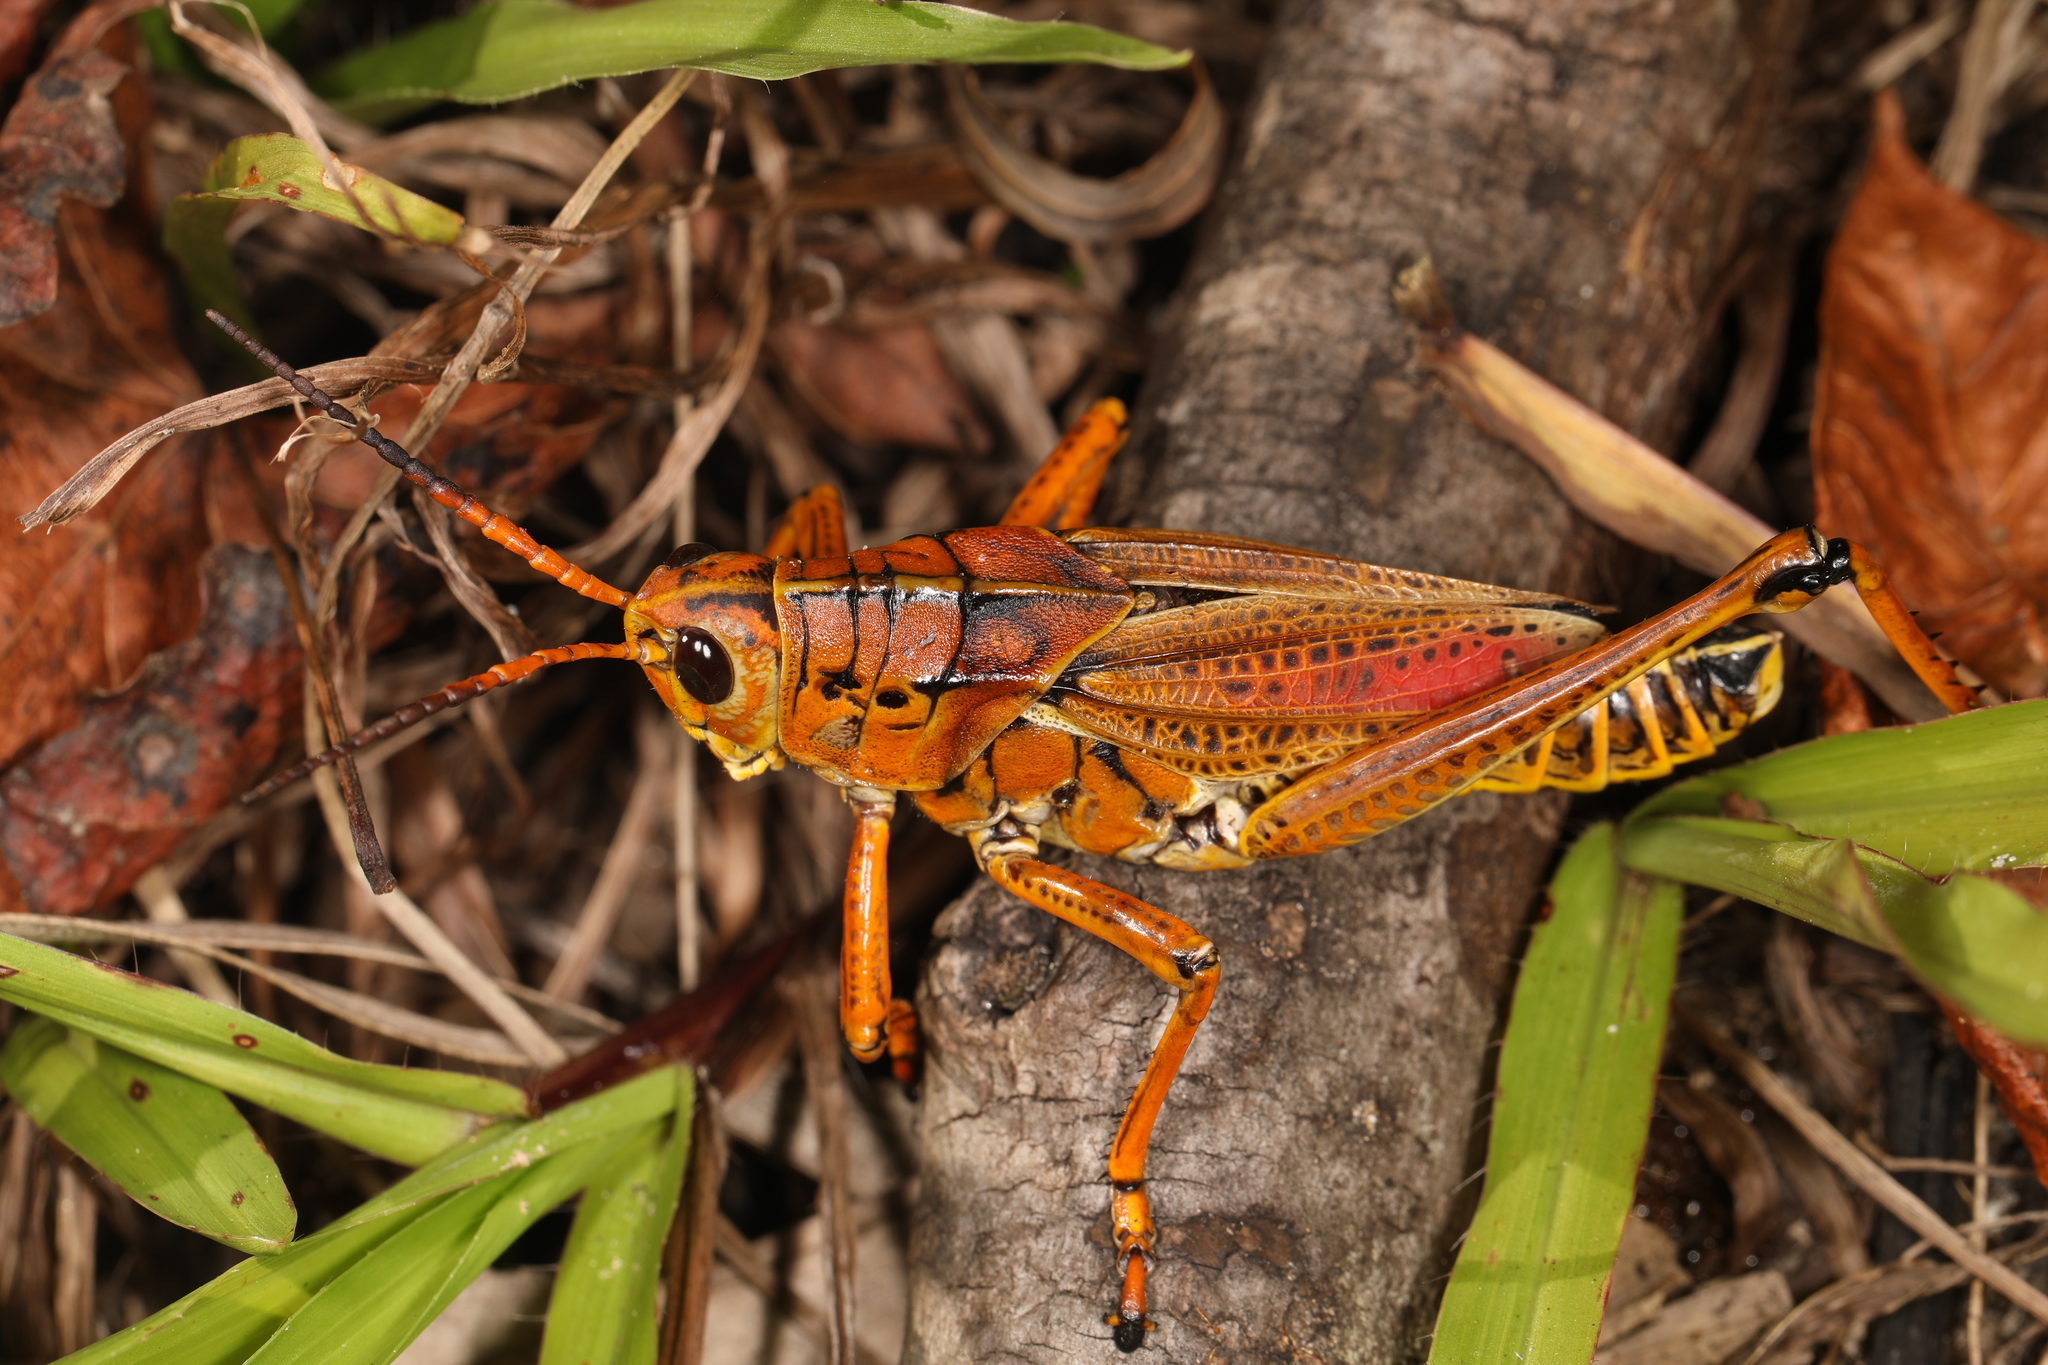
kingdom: Animalia
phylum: Arthropoda
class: Insecta
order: Orthoptera
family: Romaleidae
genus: Romalea
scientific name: Romalea microptera
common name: Eastern lubber grasshopper
